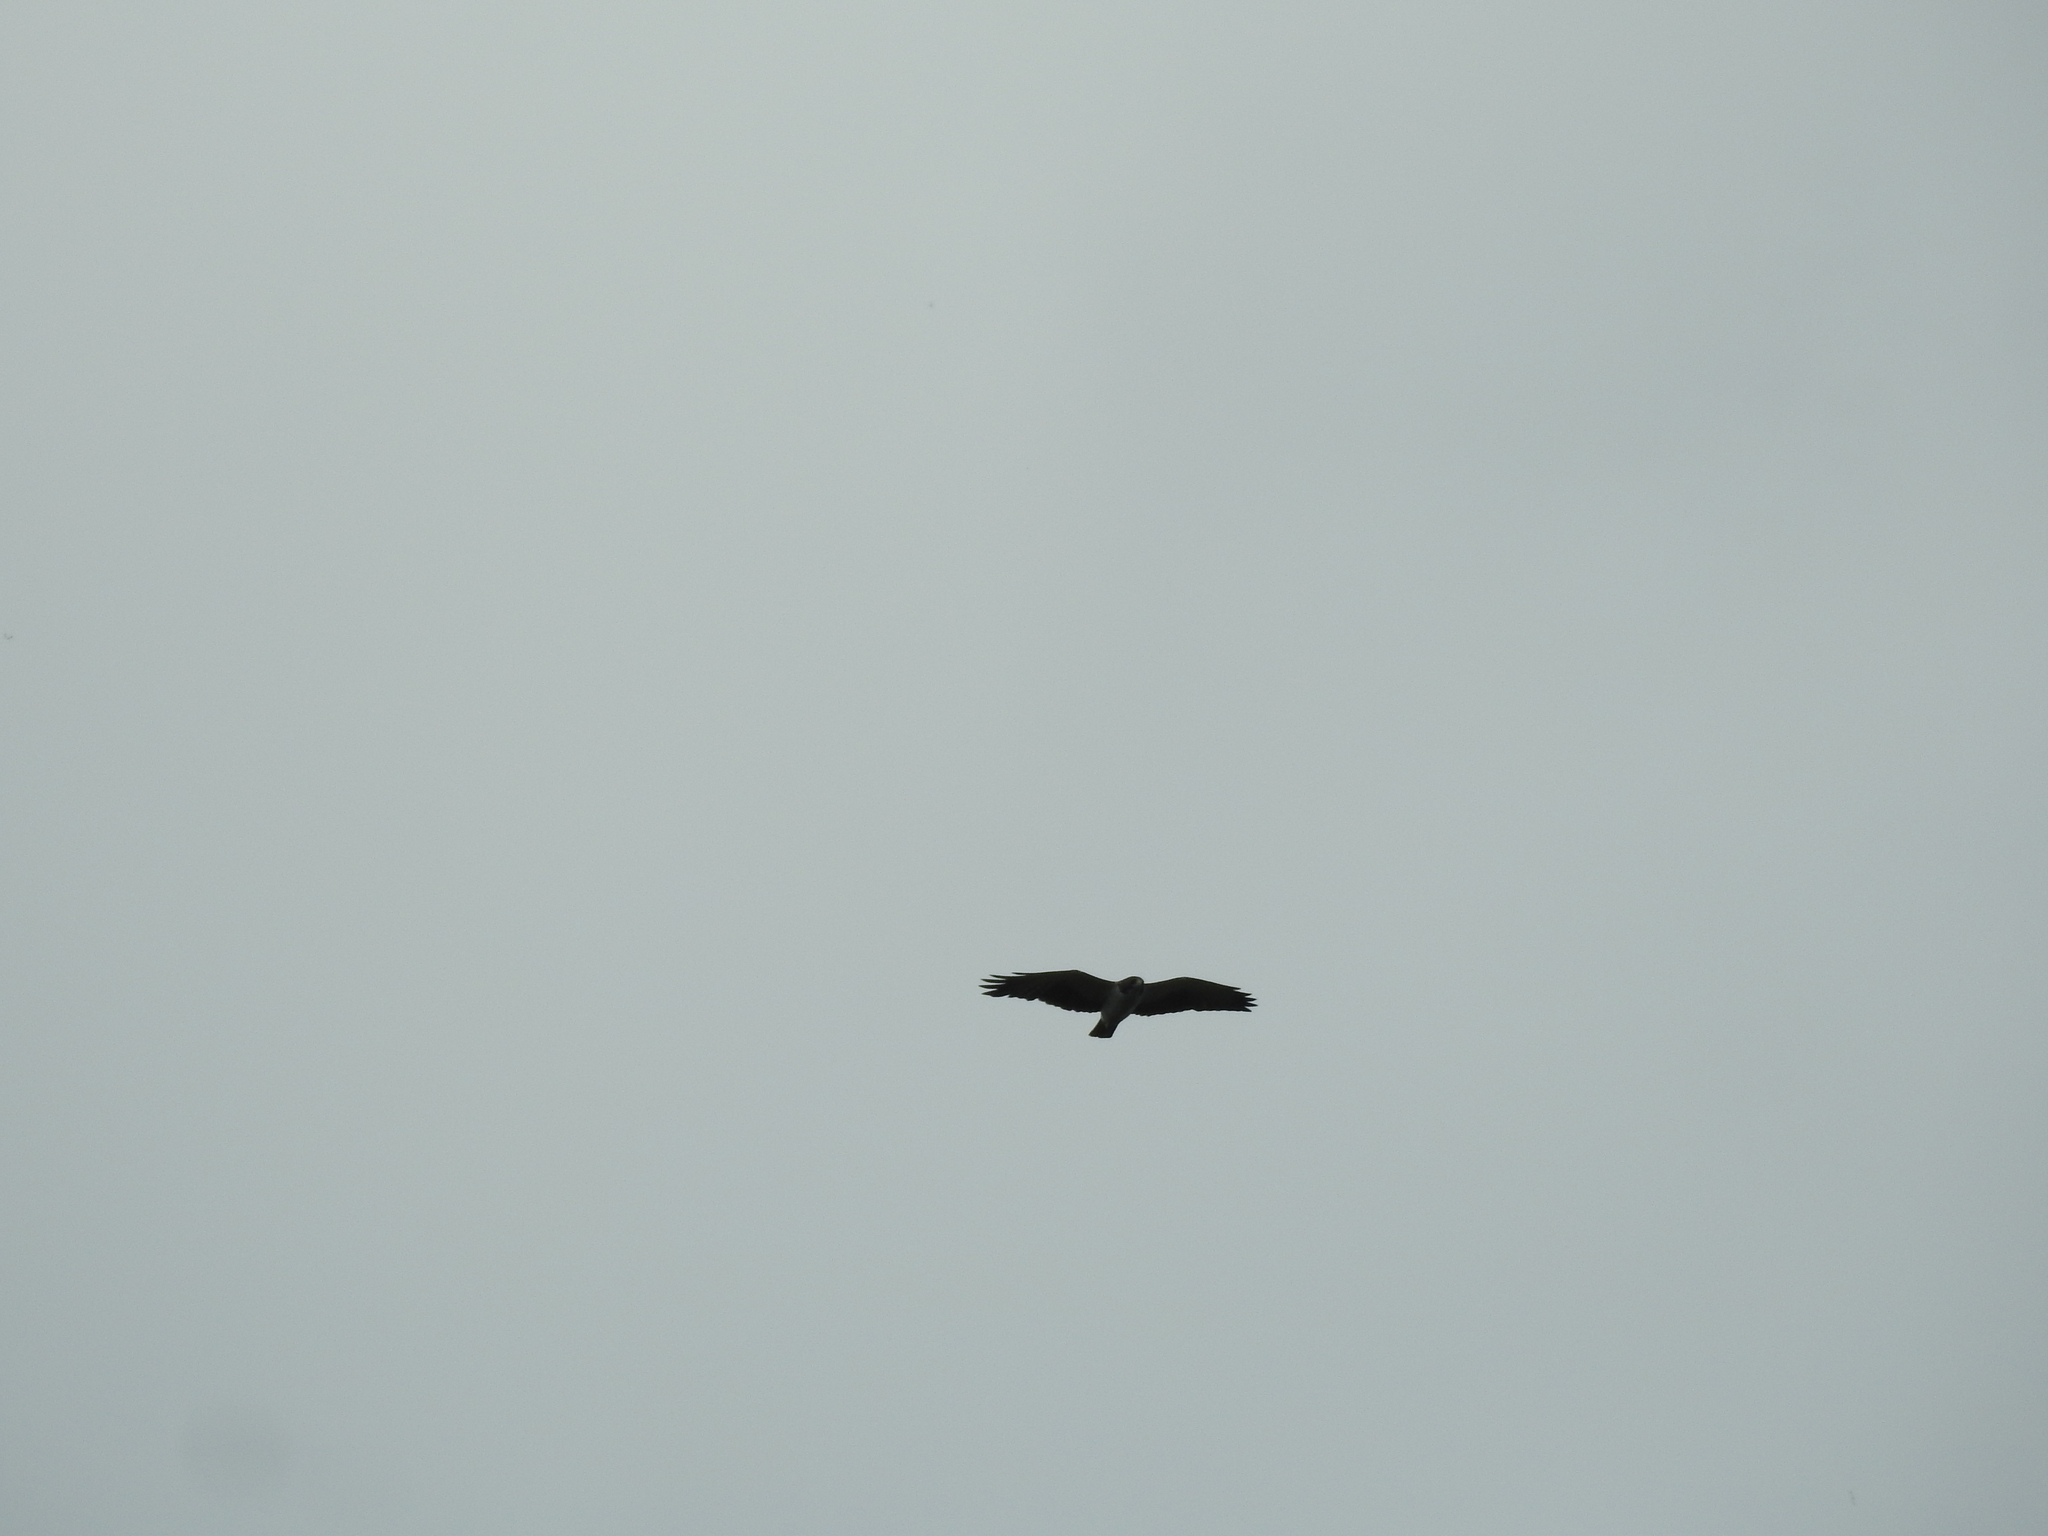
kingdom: Animalia
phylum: Chordata
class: Aves
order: Accipitriformes
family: Accipitridae
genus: Buteo
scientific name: Buteo brachyurus
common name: Short-tailed hawk
